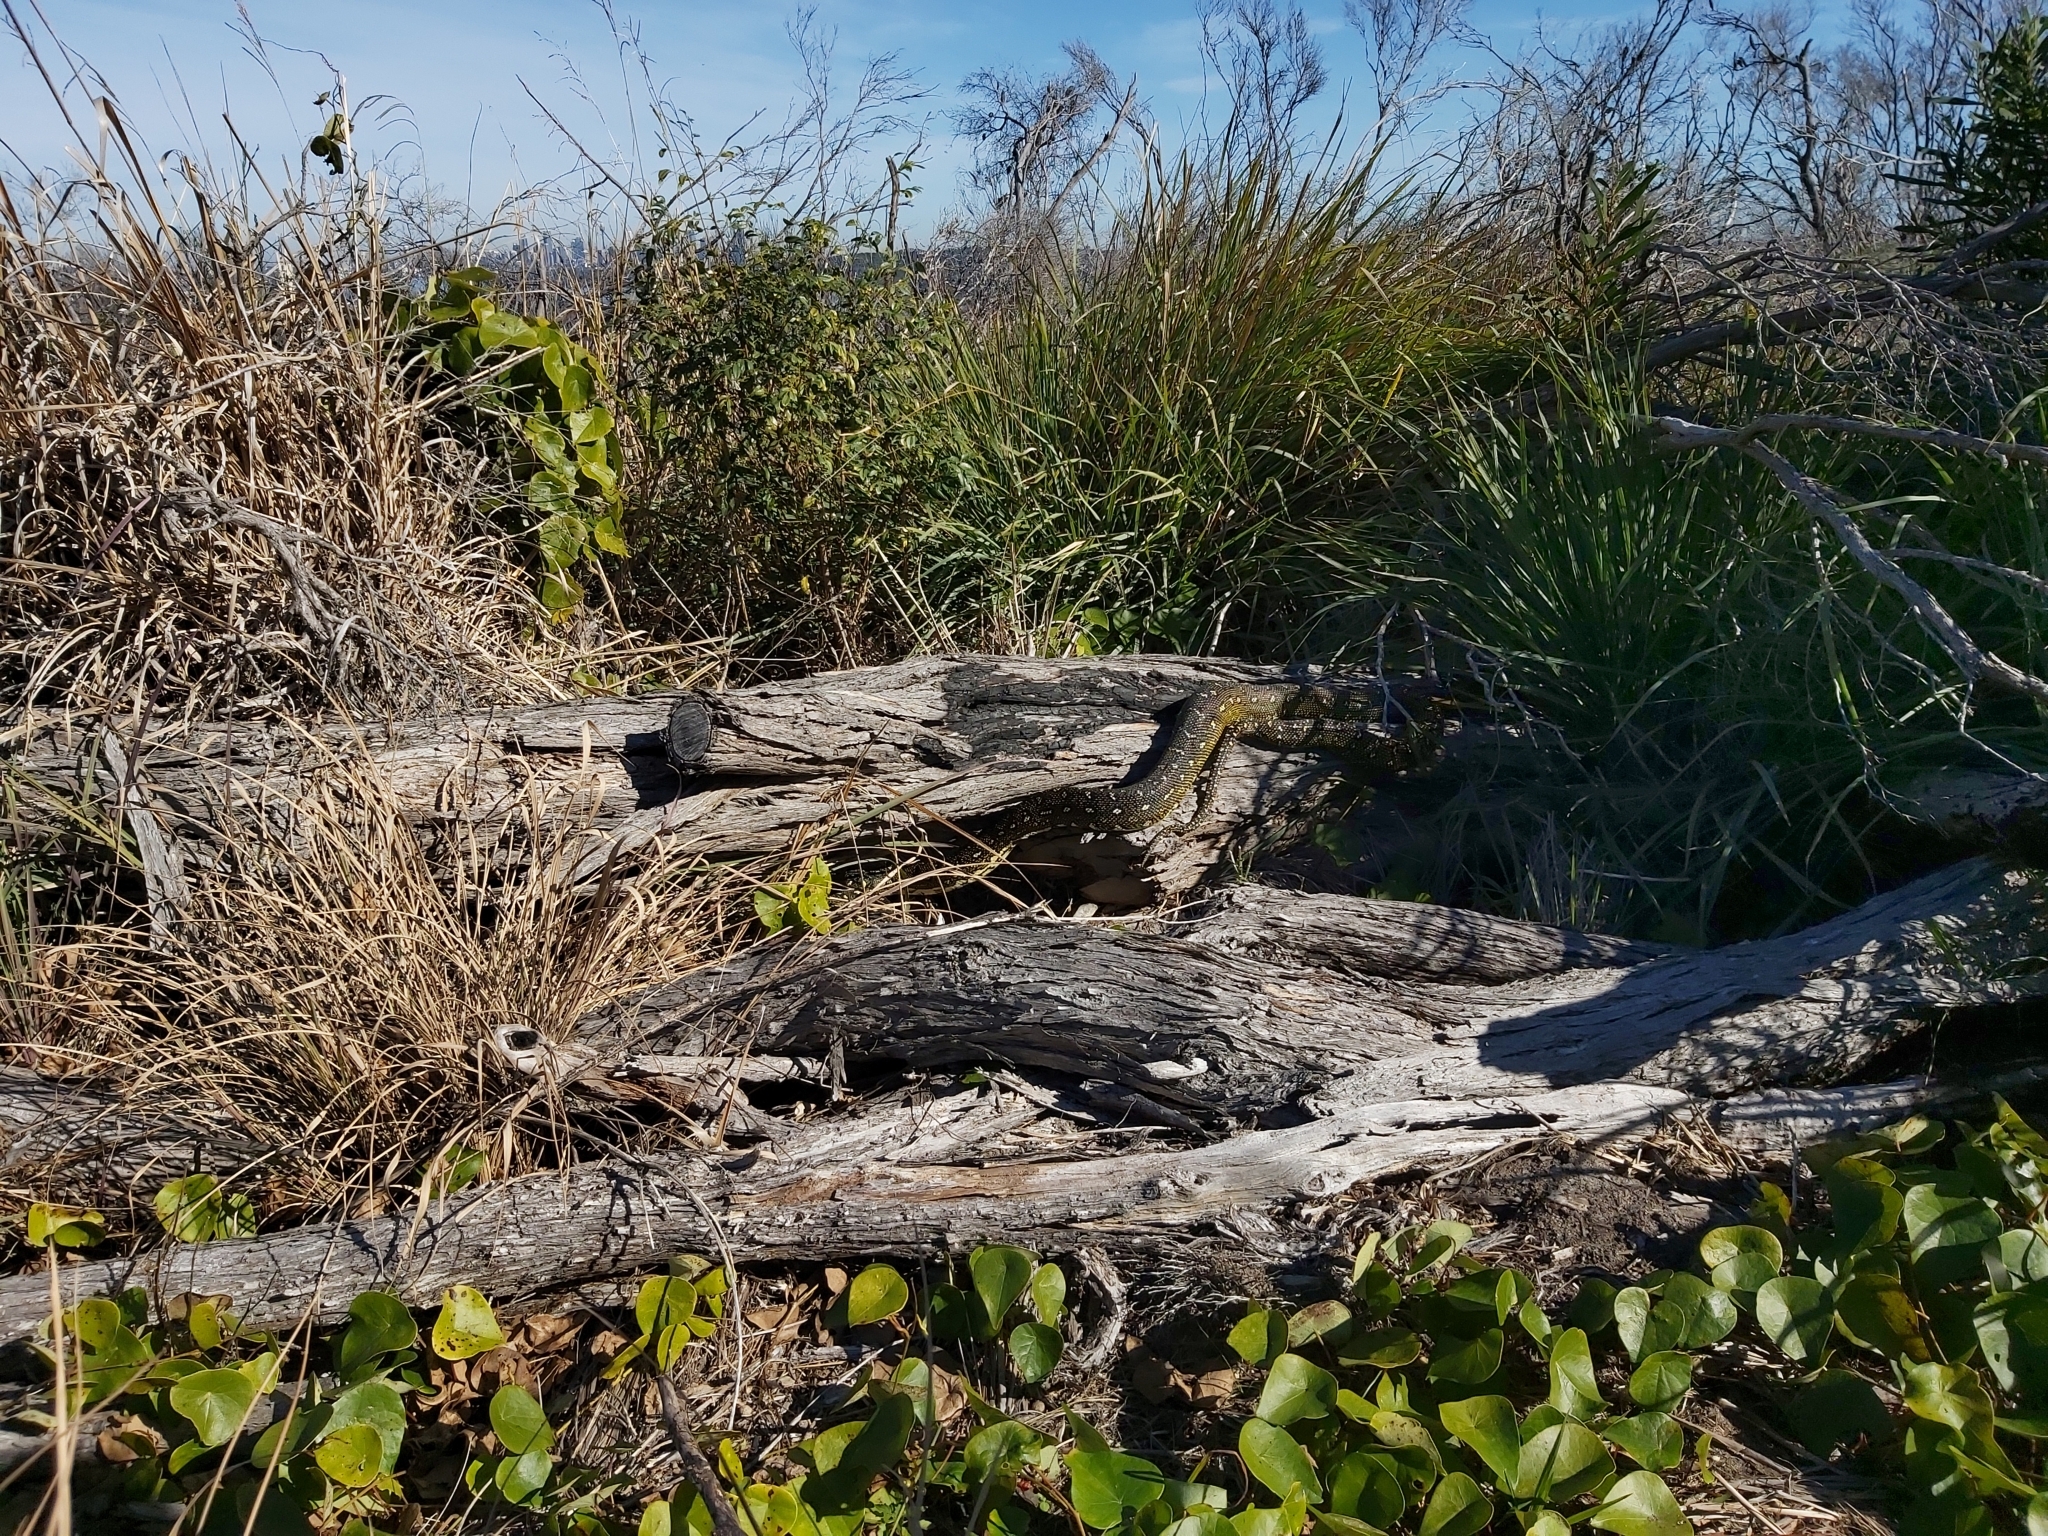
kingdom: Animalia
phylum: Chordata
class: Squamata
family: Pythonidae
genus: Morelia
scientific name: Morelia spilota
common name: Carpet python
